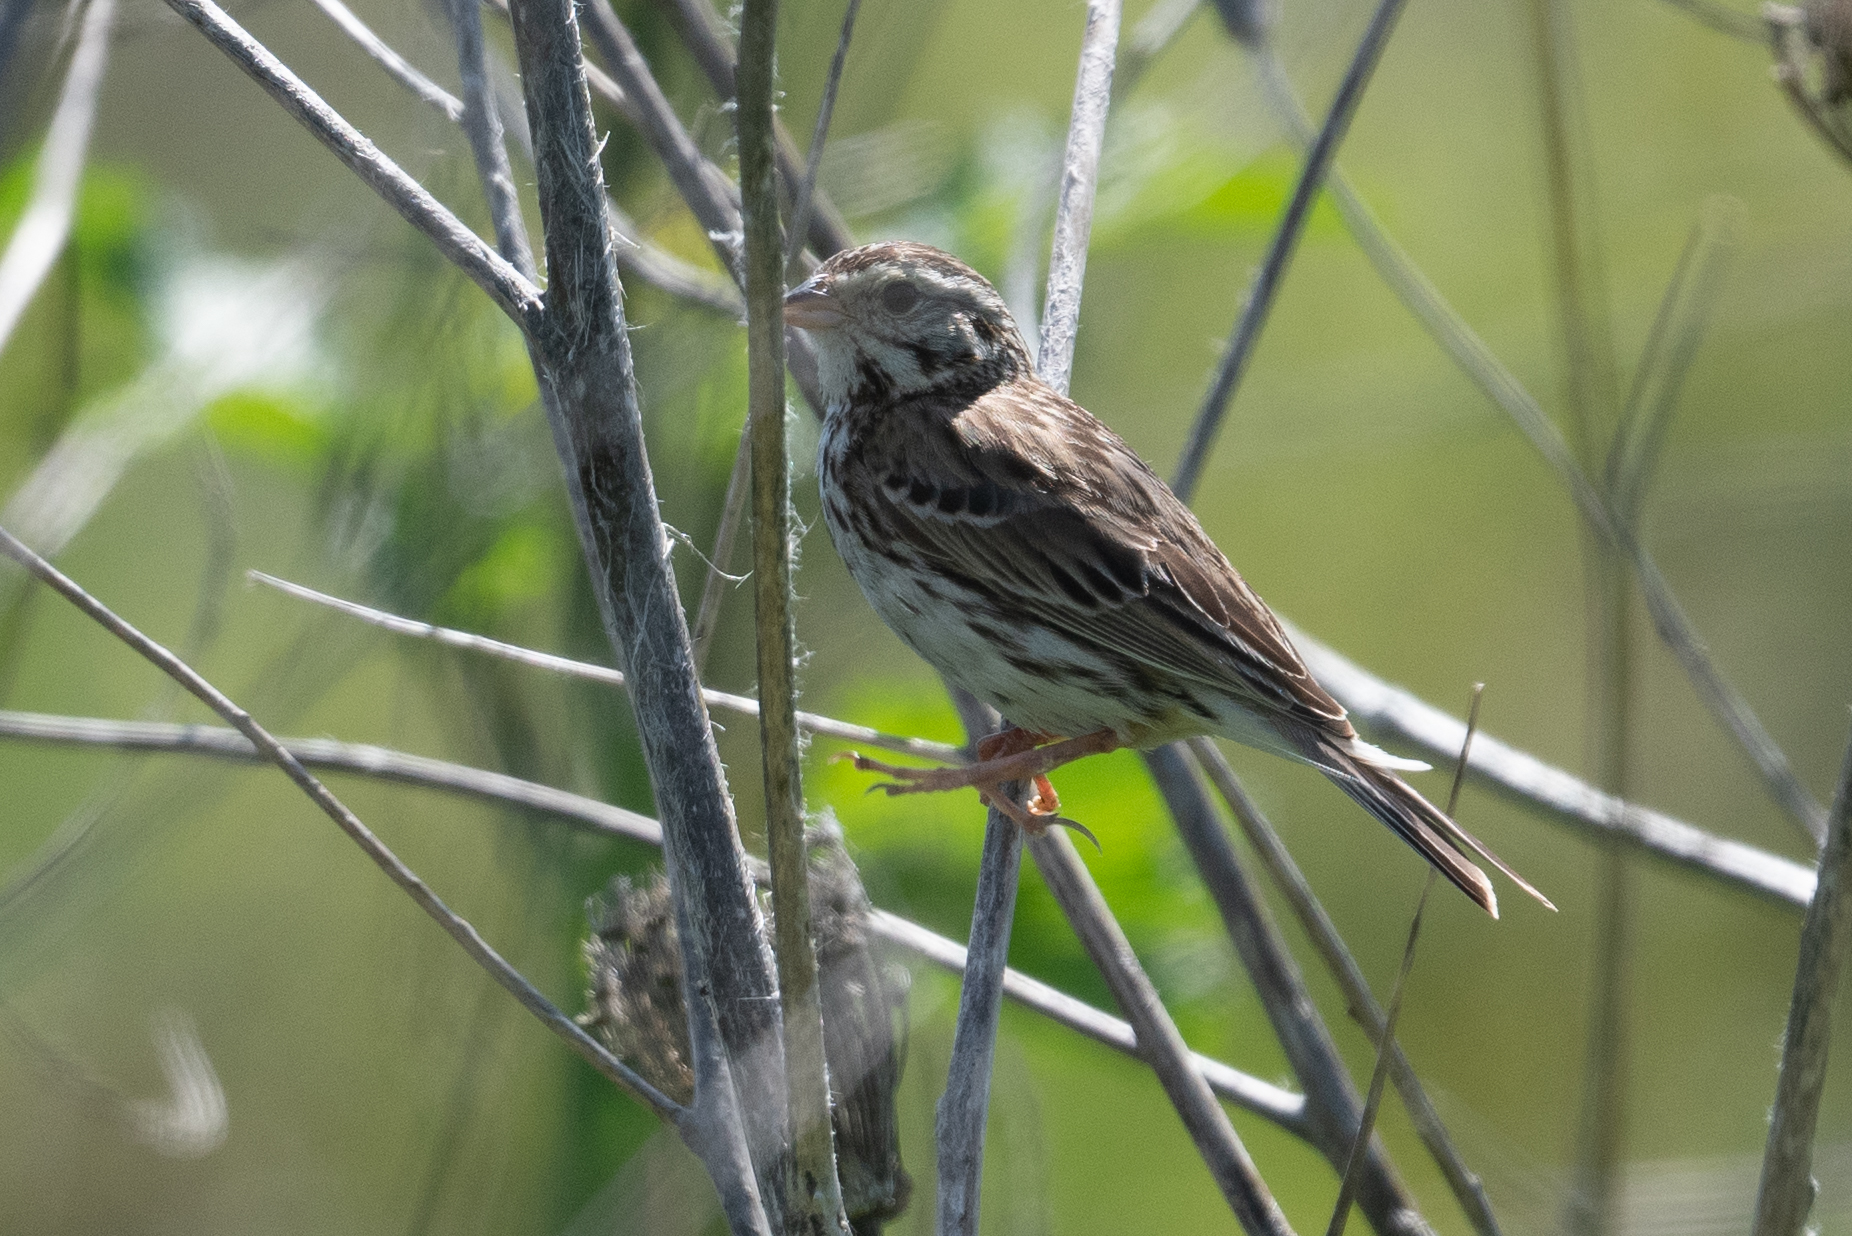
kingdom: Animalia
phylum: Chordata
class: Aves
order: Passeriformes
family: Passerellidae
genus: Passerculus
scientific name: Passerculus sandwichensis
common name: Savannah sparrow
